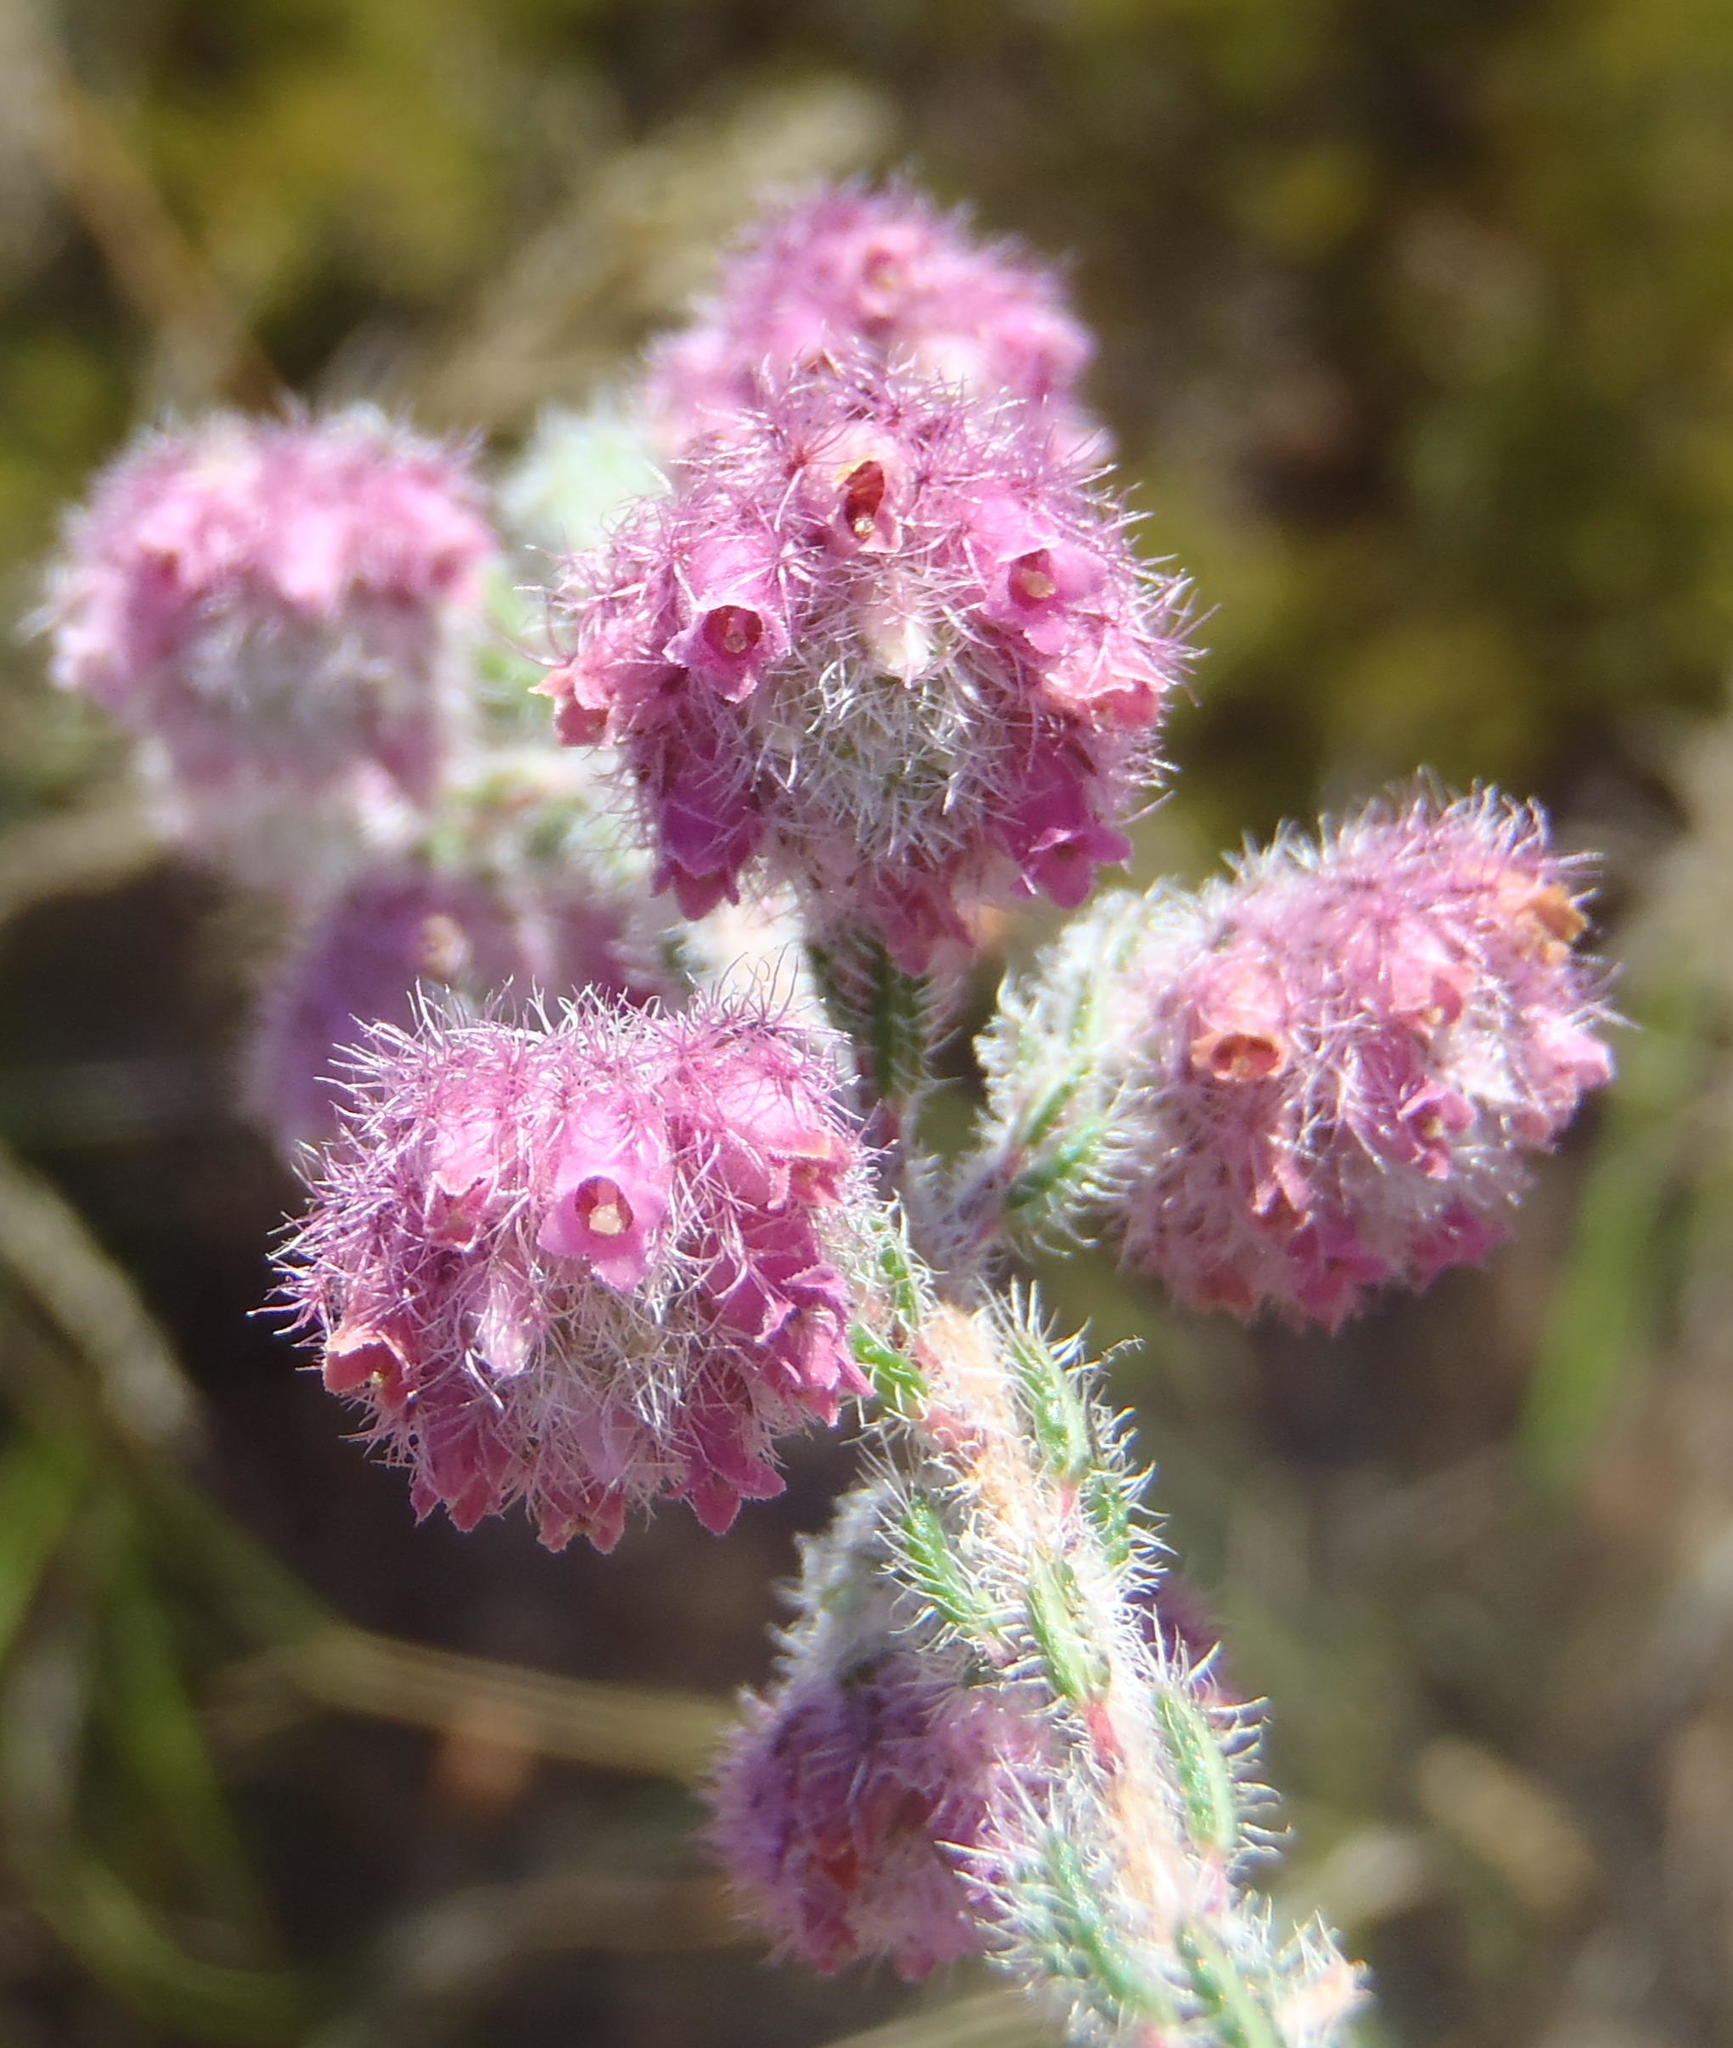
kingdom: Plantae
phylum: Tracheophyta
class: Magnoliopsida
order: Ericales
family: Ericaceae
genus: Erica
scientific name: Erica solandra
